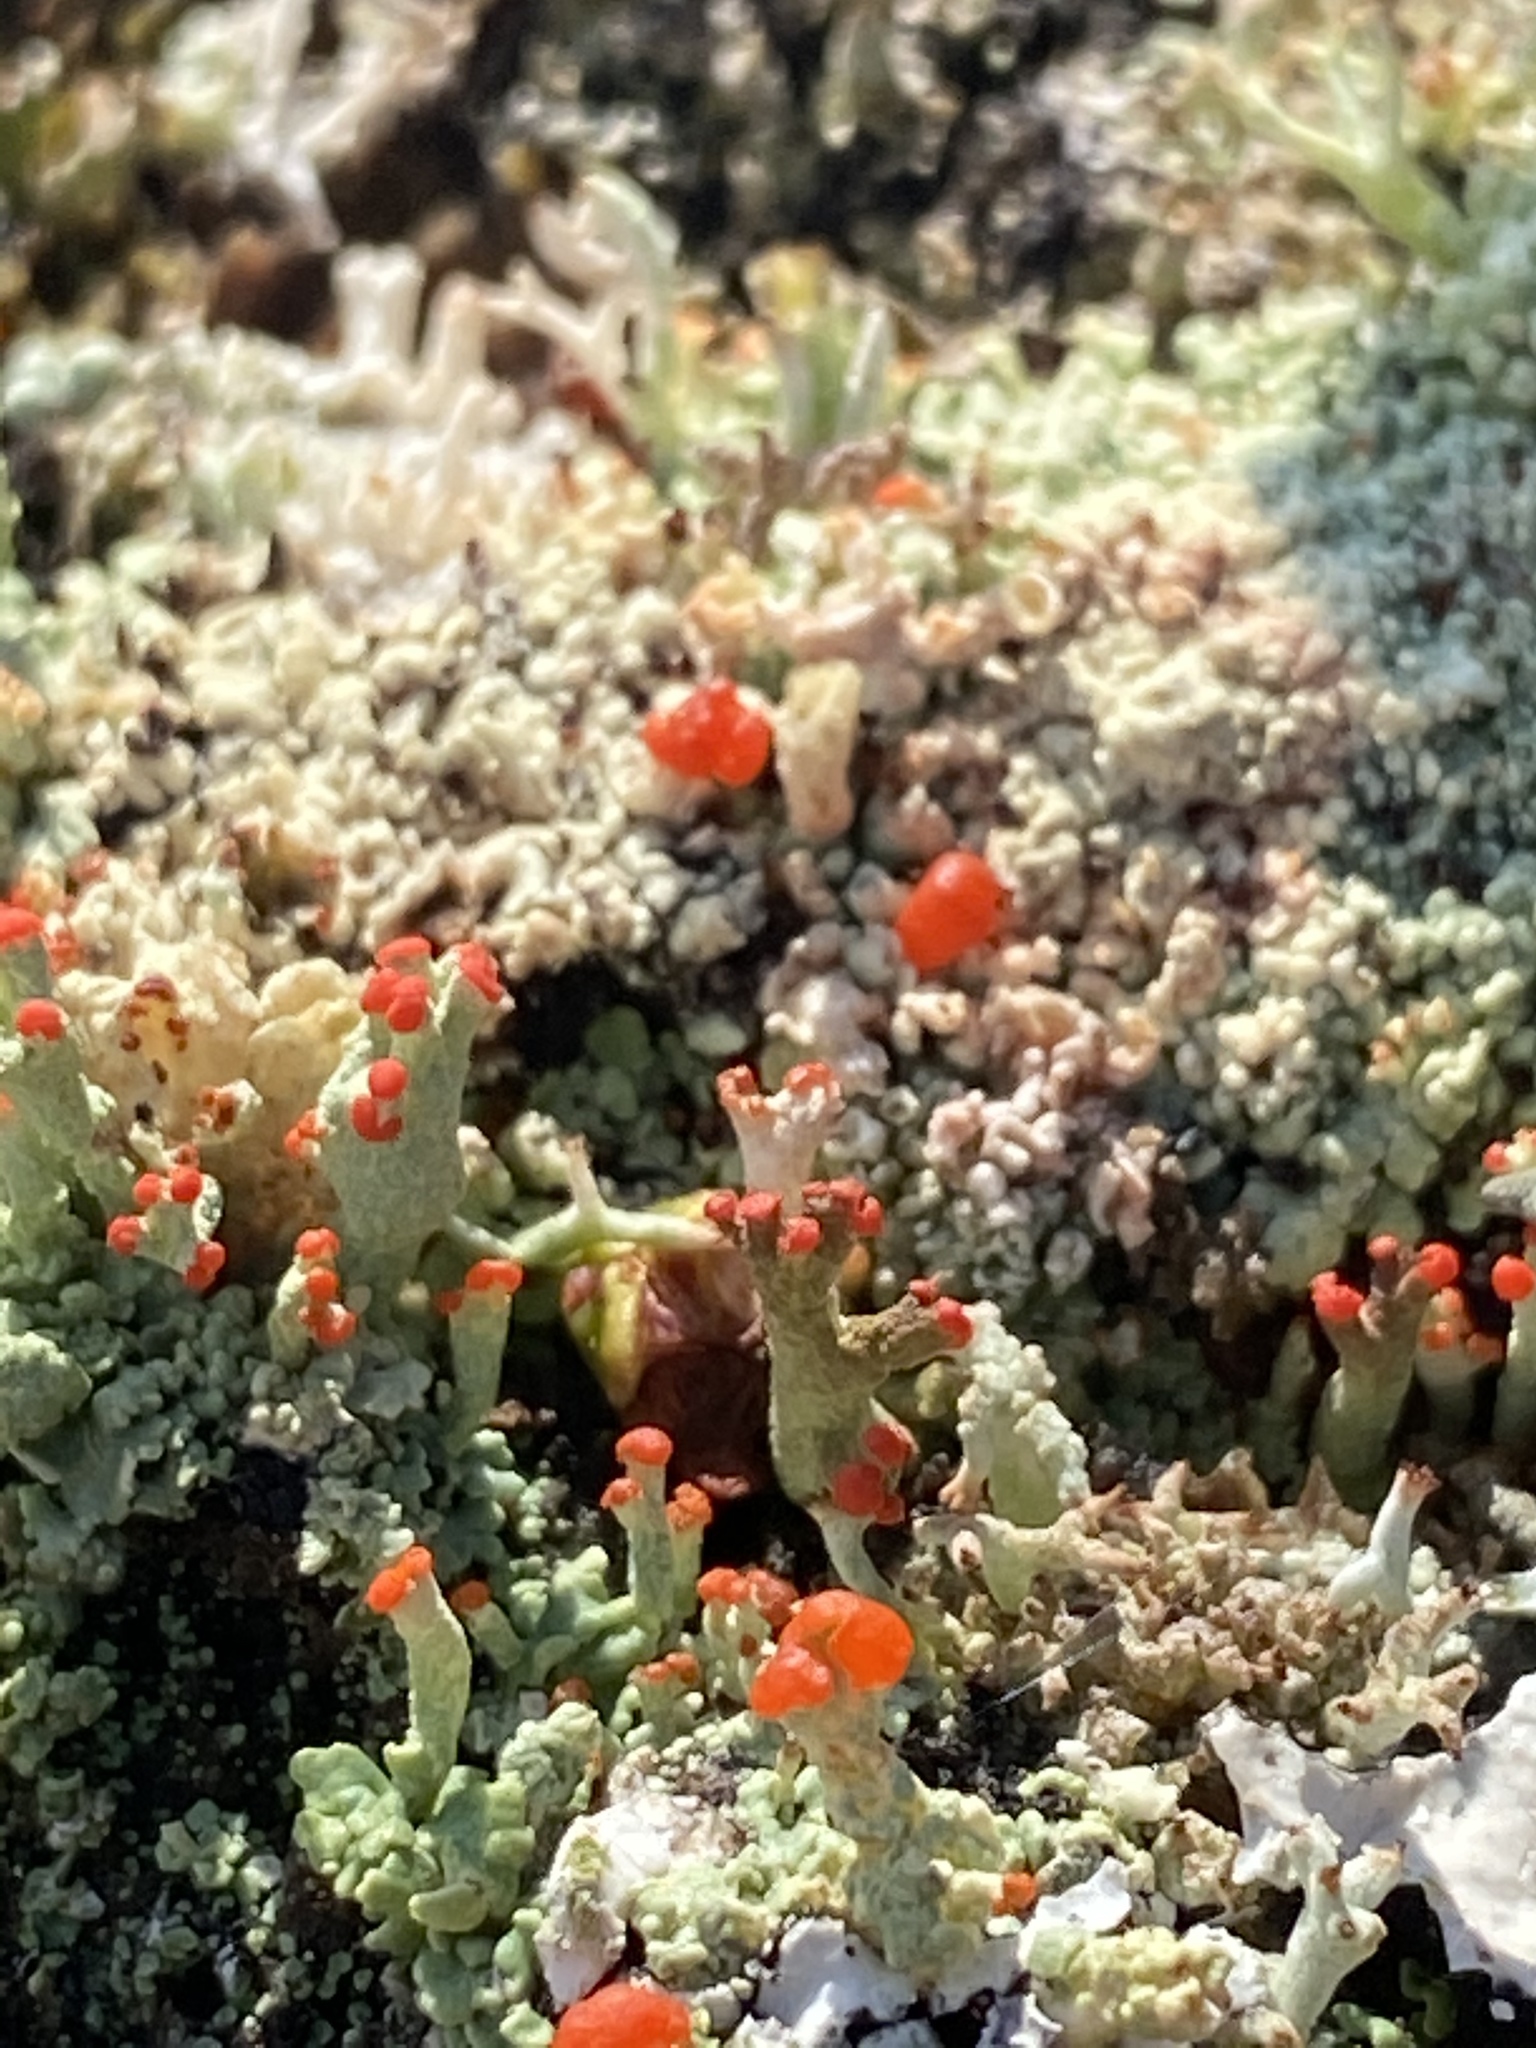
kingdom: Fungi
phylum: Ascomycota
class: Lecanoromycetes
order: Lecanorales
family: Cladoniaceae
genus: Cladonia
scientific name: Cladonia cristatella
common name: British soldier lichen
